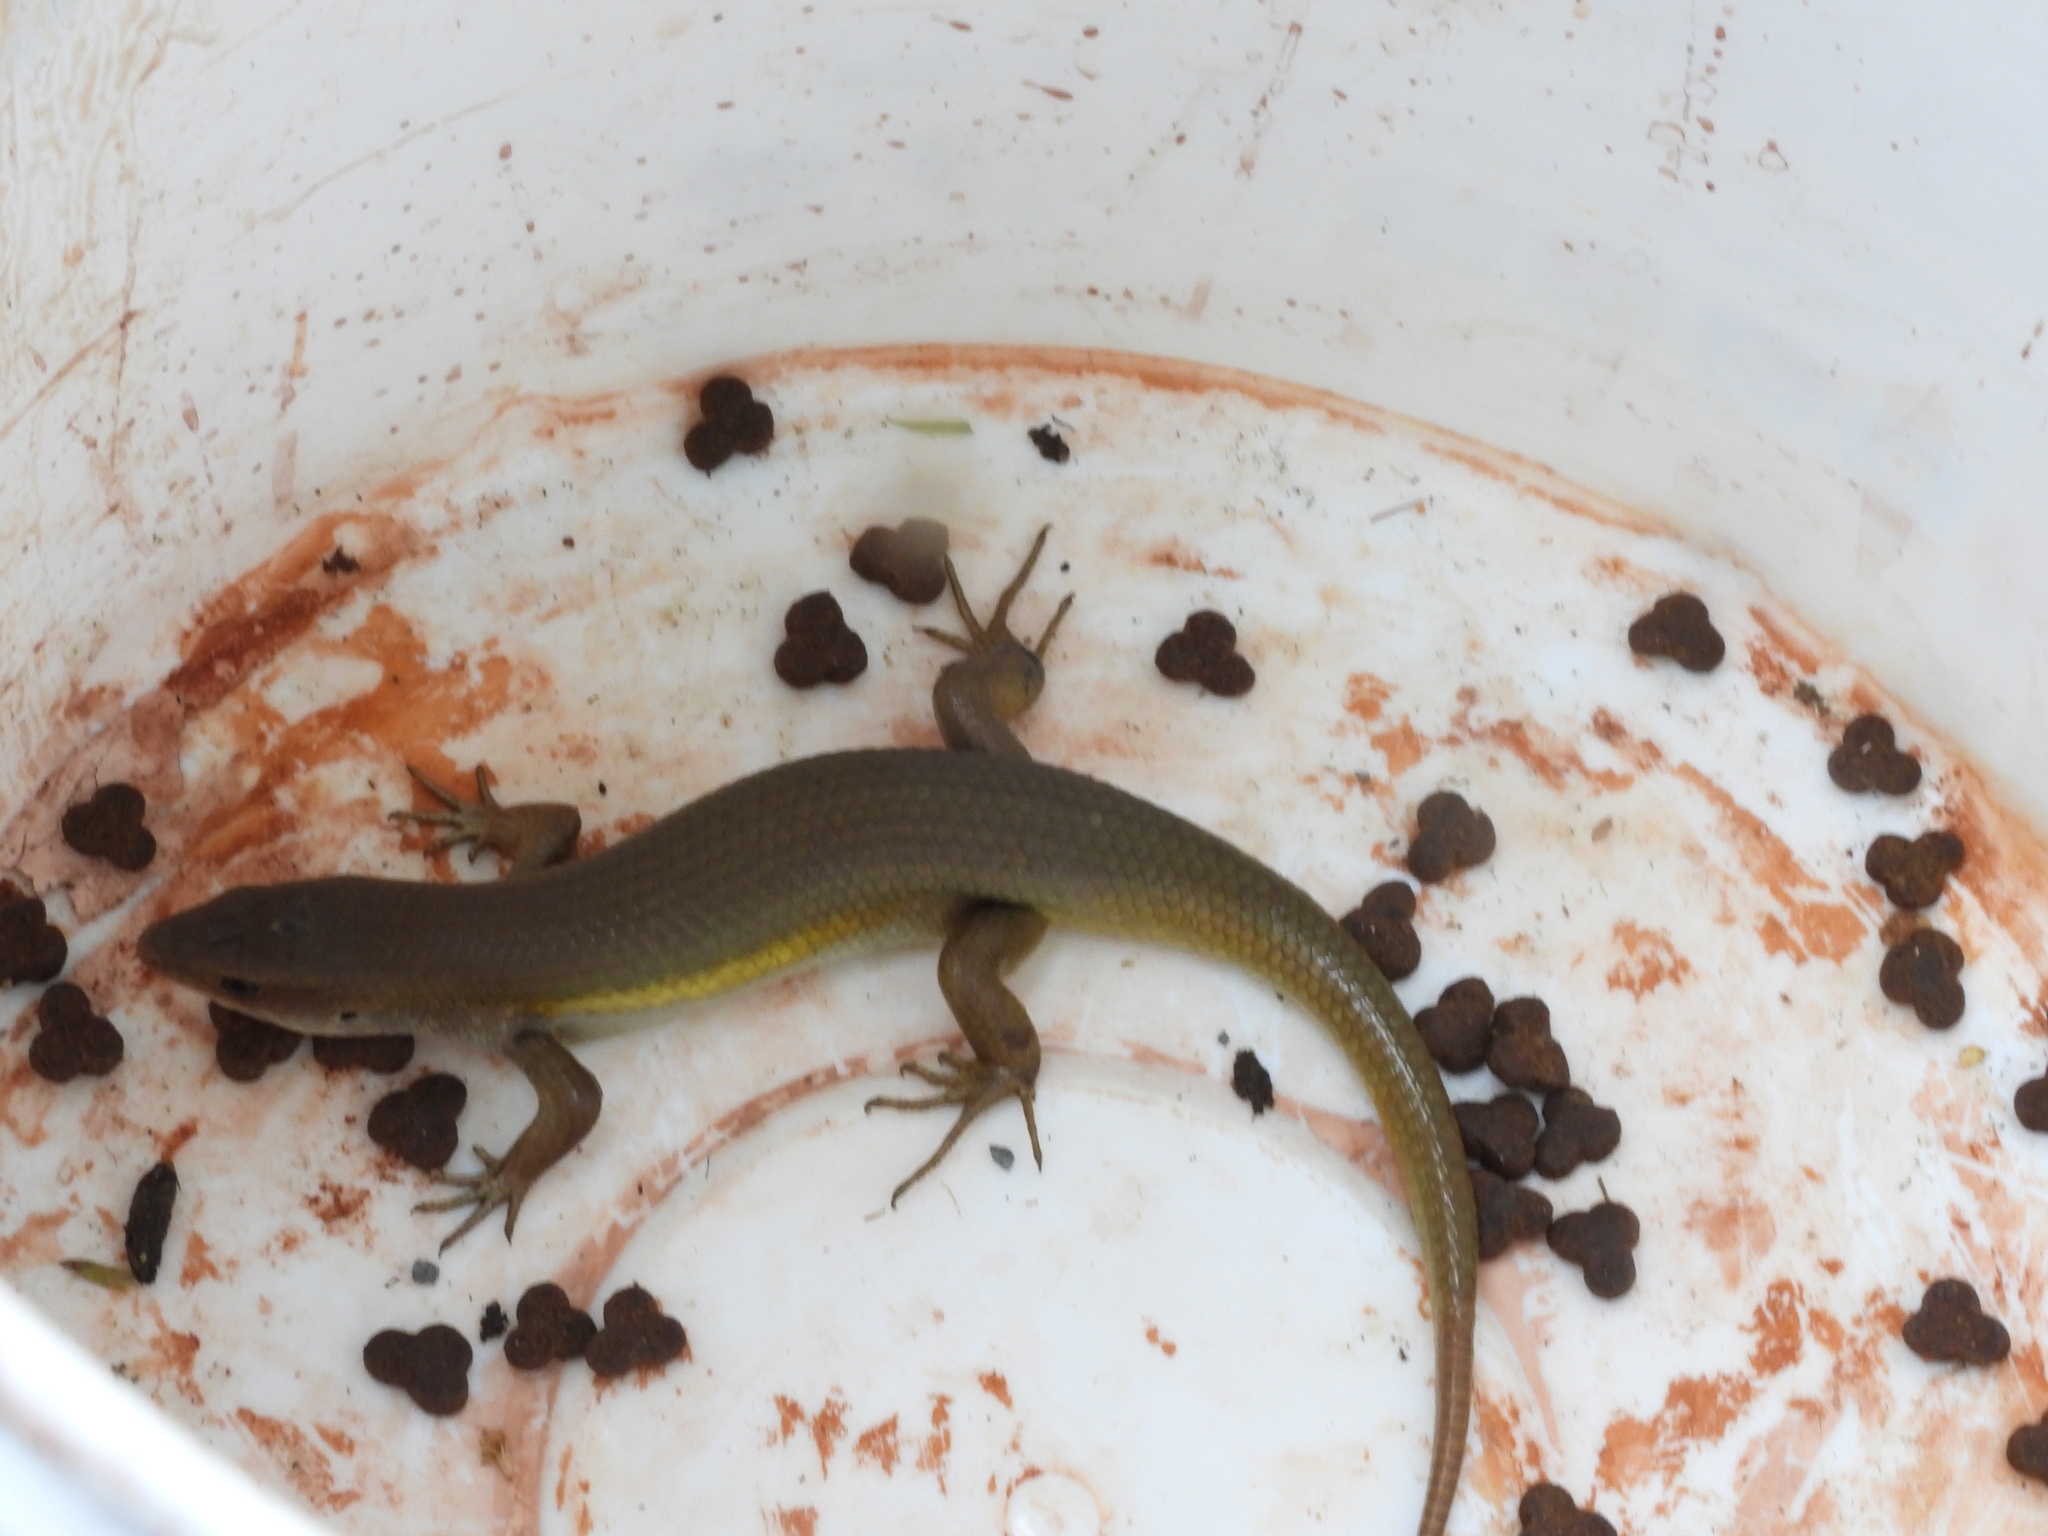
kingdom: Animalia
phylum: Chordata
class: Squamata
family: Scincidae
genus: Eutropis
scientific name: Eutropis multifasciata
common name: Common mabuya
